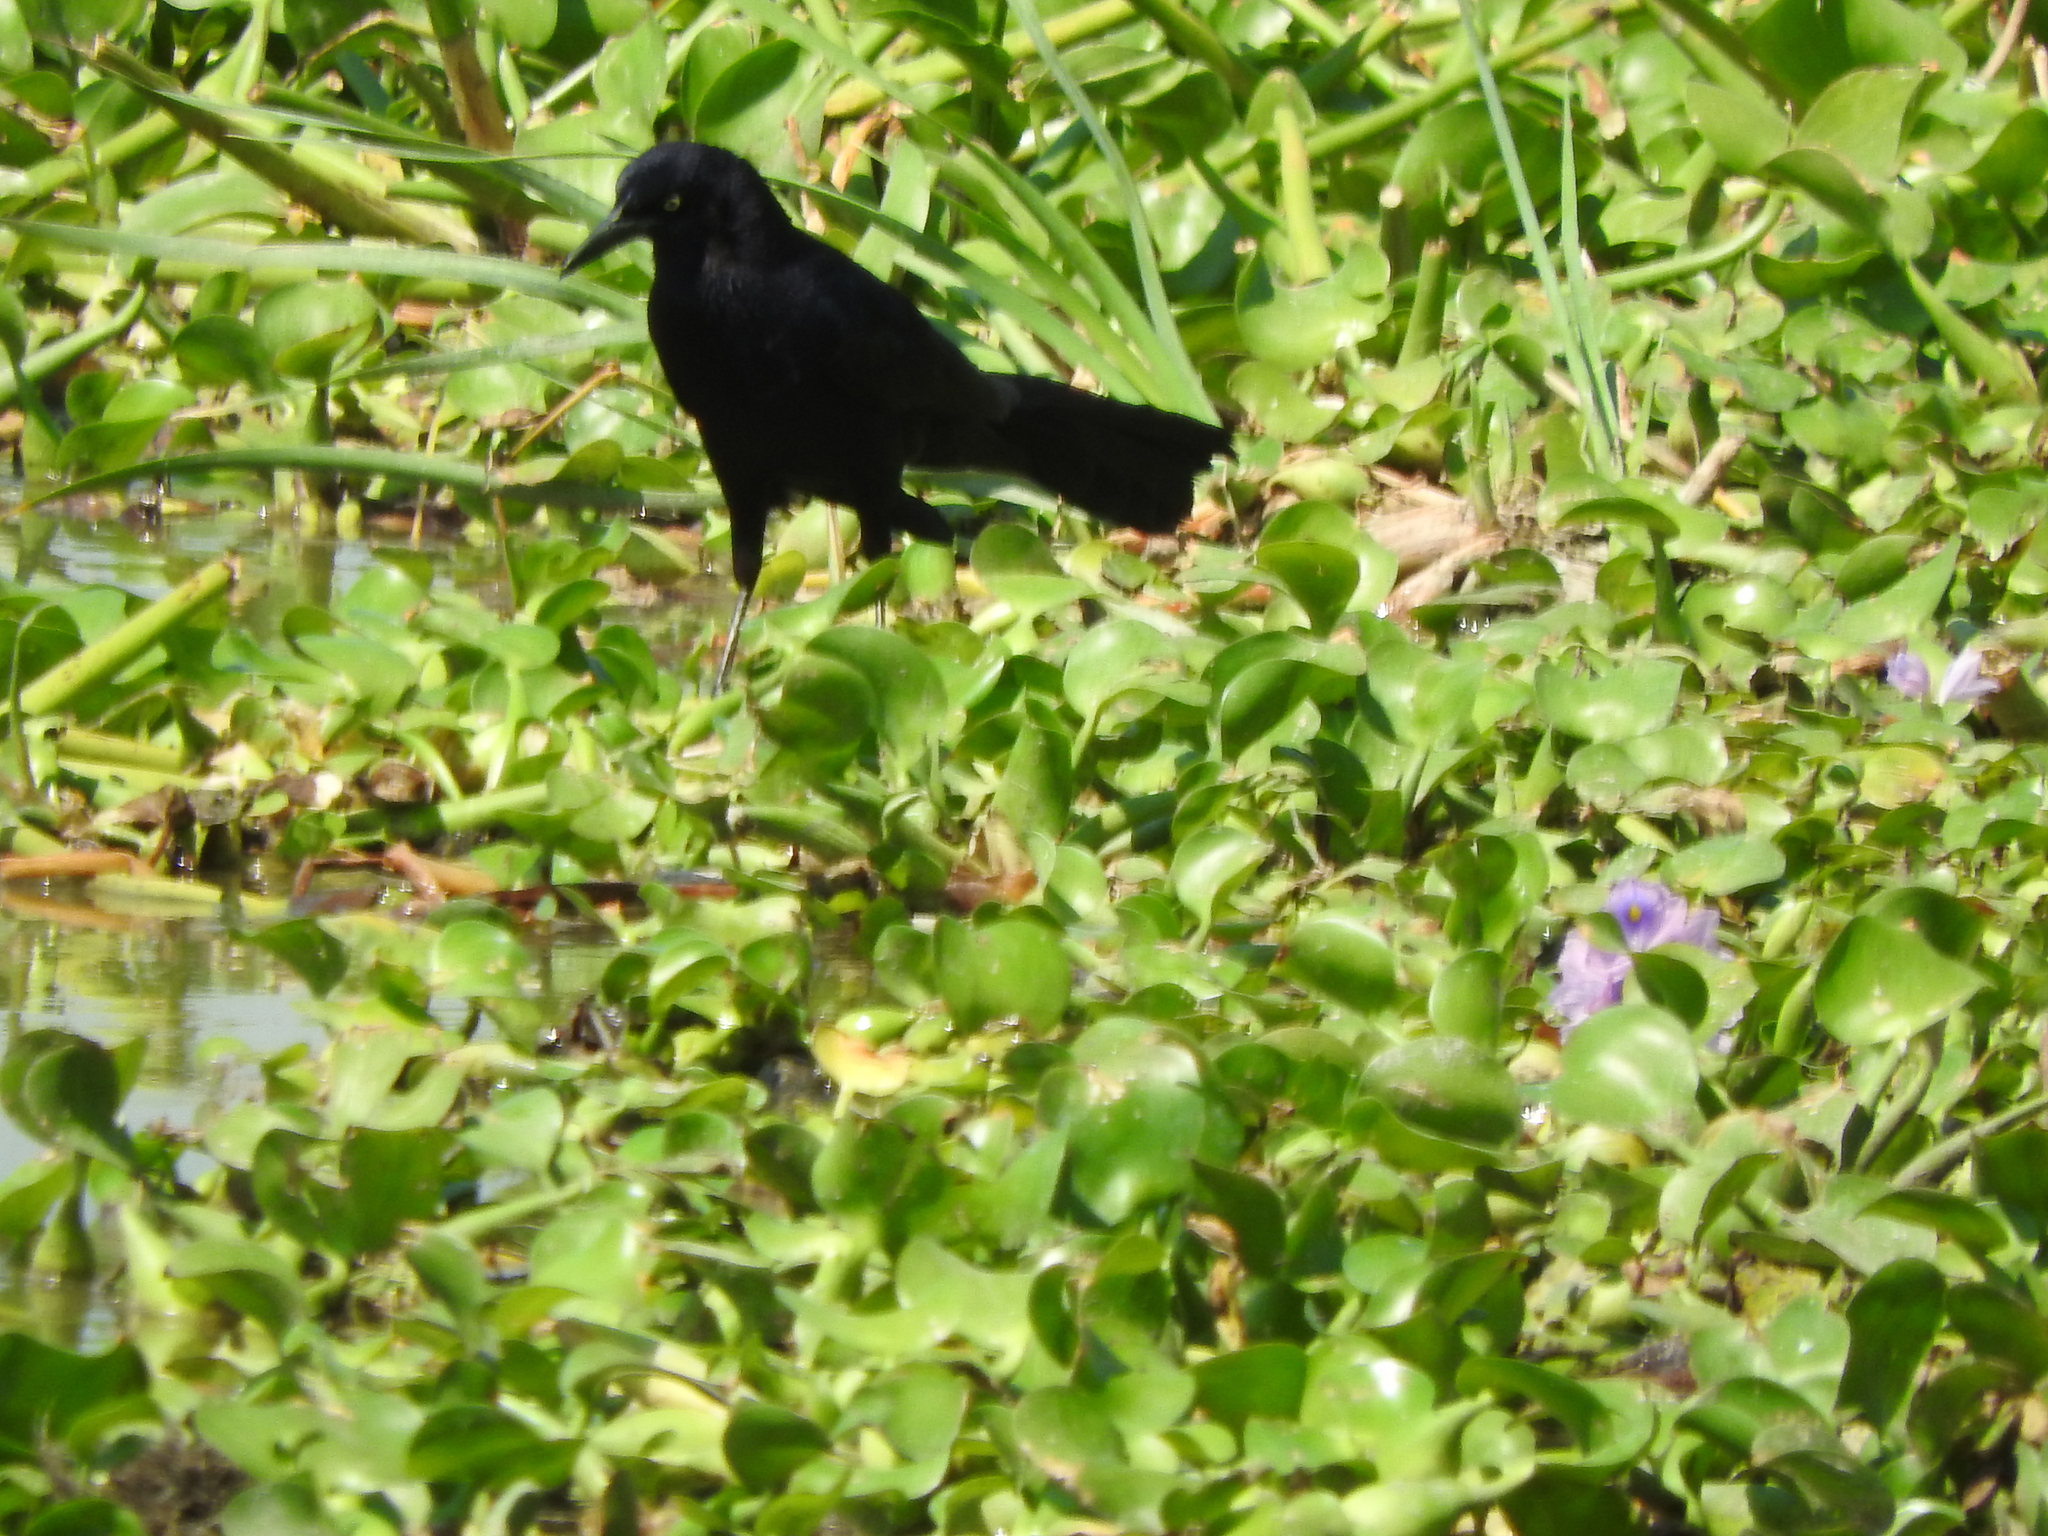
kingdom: Animalia
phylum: Chordata
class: Aves
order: Passeriformes
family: Icteridae
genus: Quiscalus
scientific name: Quiscalus mexicanus
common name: Great-tailed grackle
